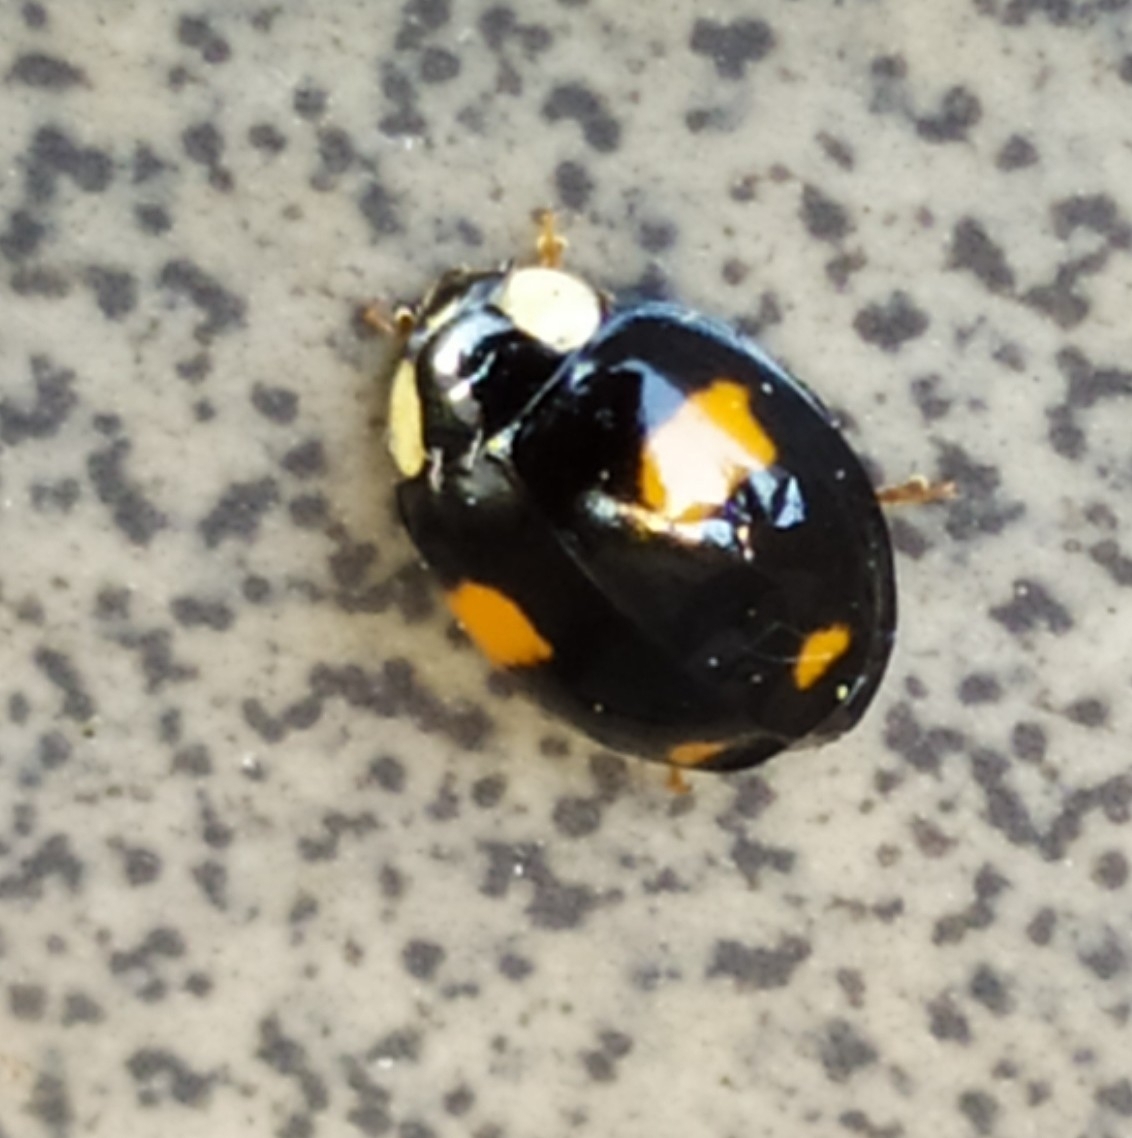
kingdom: Animalia
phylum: Arthropoda
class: Insecta
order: Coleoptera
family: Coccinellidae
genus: Harmonia
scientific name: Harmonia axyridis
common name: Harlequin ladybird
